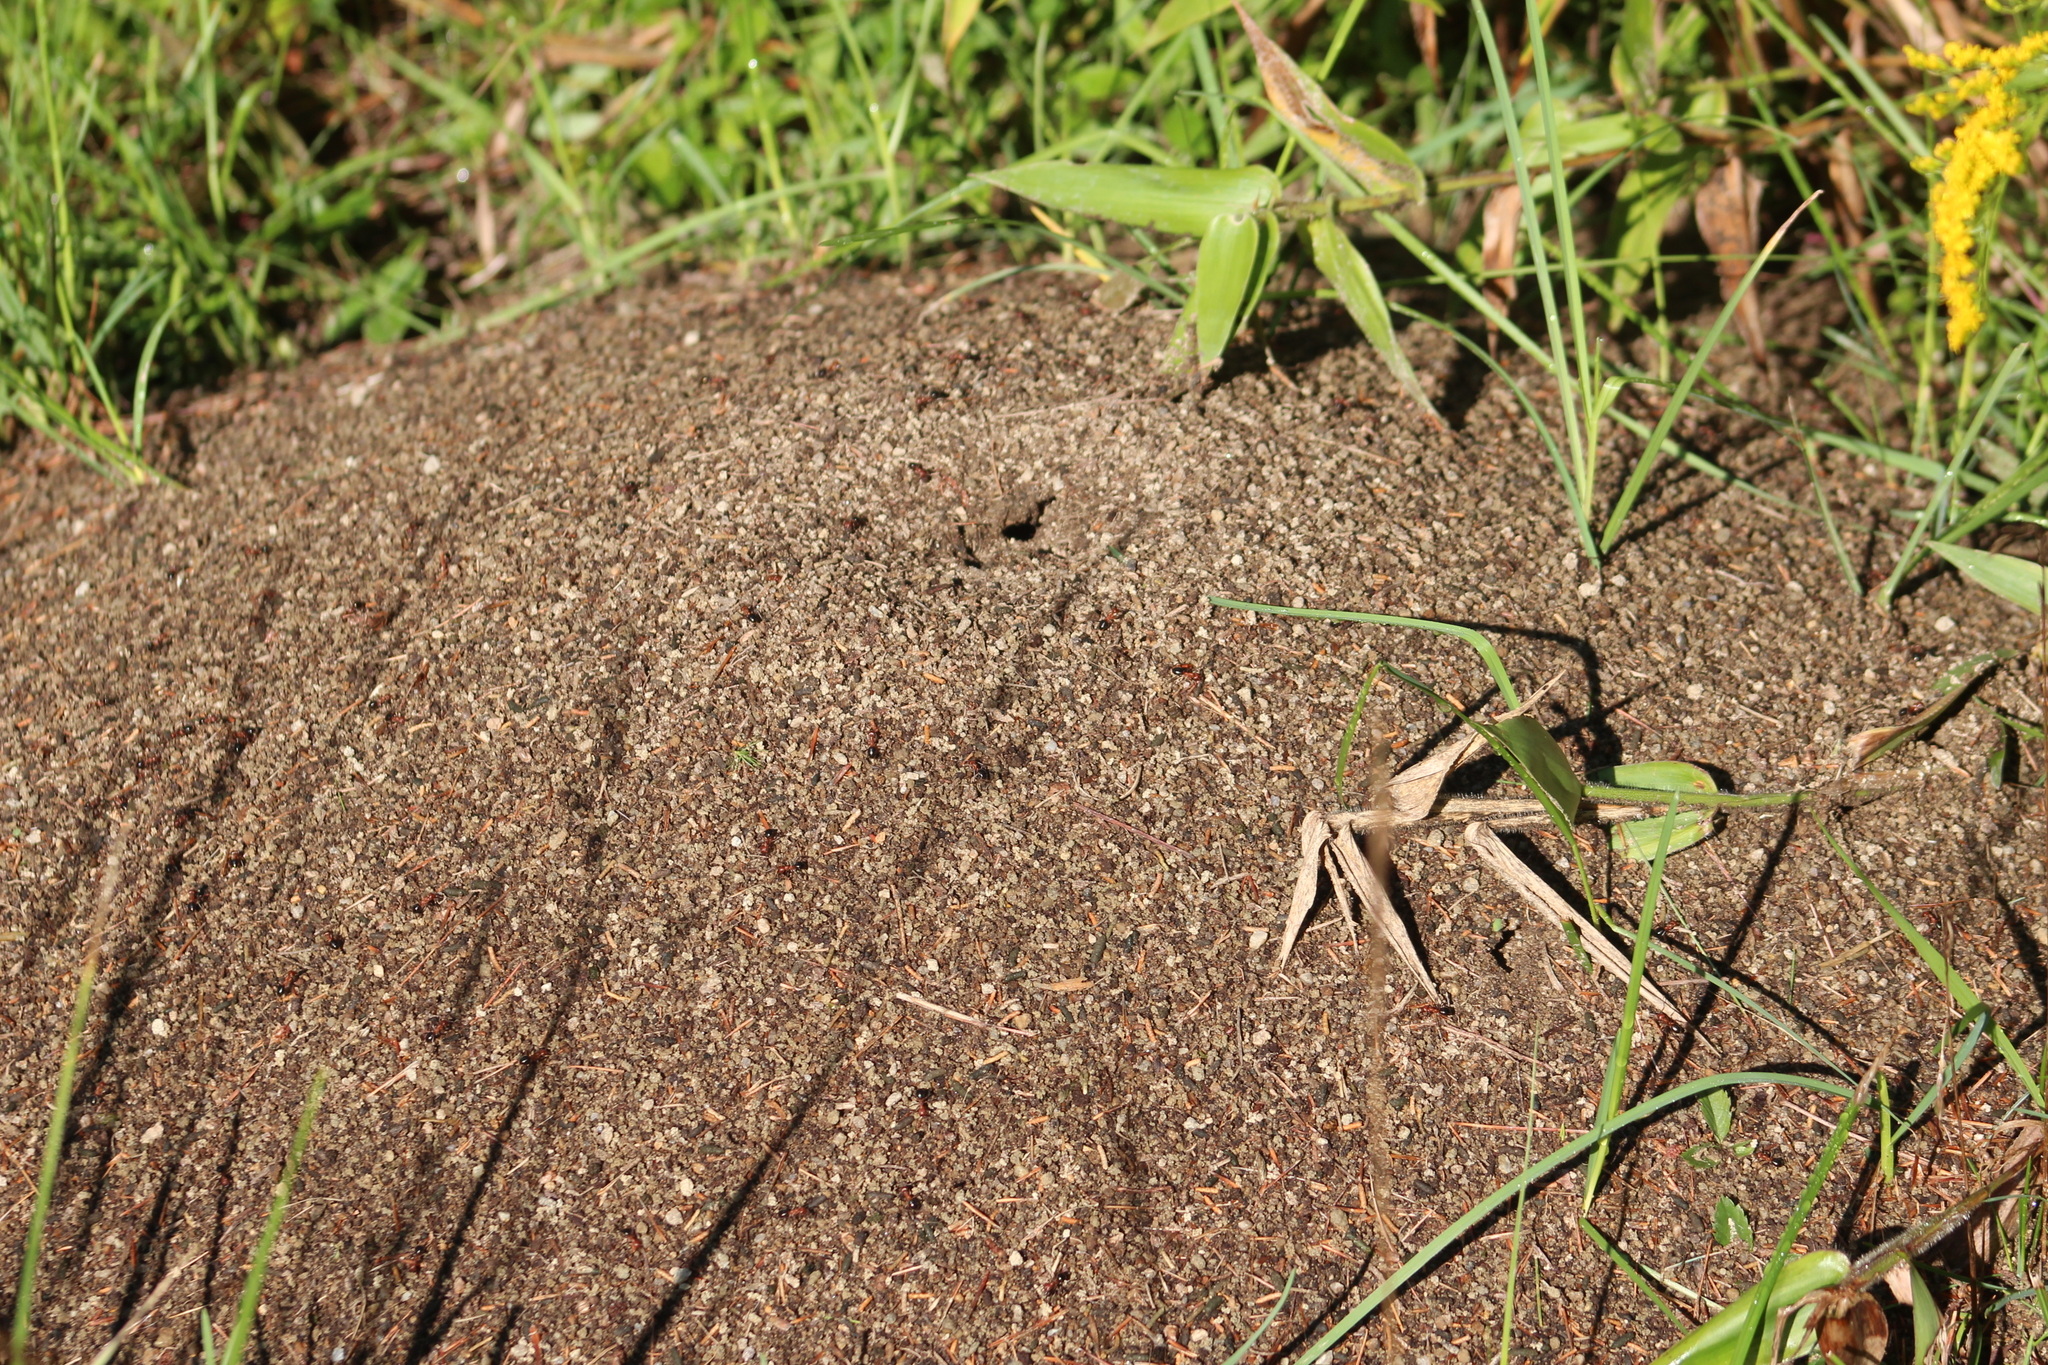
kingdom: Animalia
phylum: Arthropoda
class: Insecta
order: Hymenoptera
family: Formicidae
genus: Formica
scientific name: Formica exsectoides
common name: Allegheny mound ant
